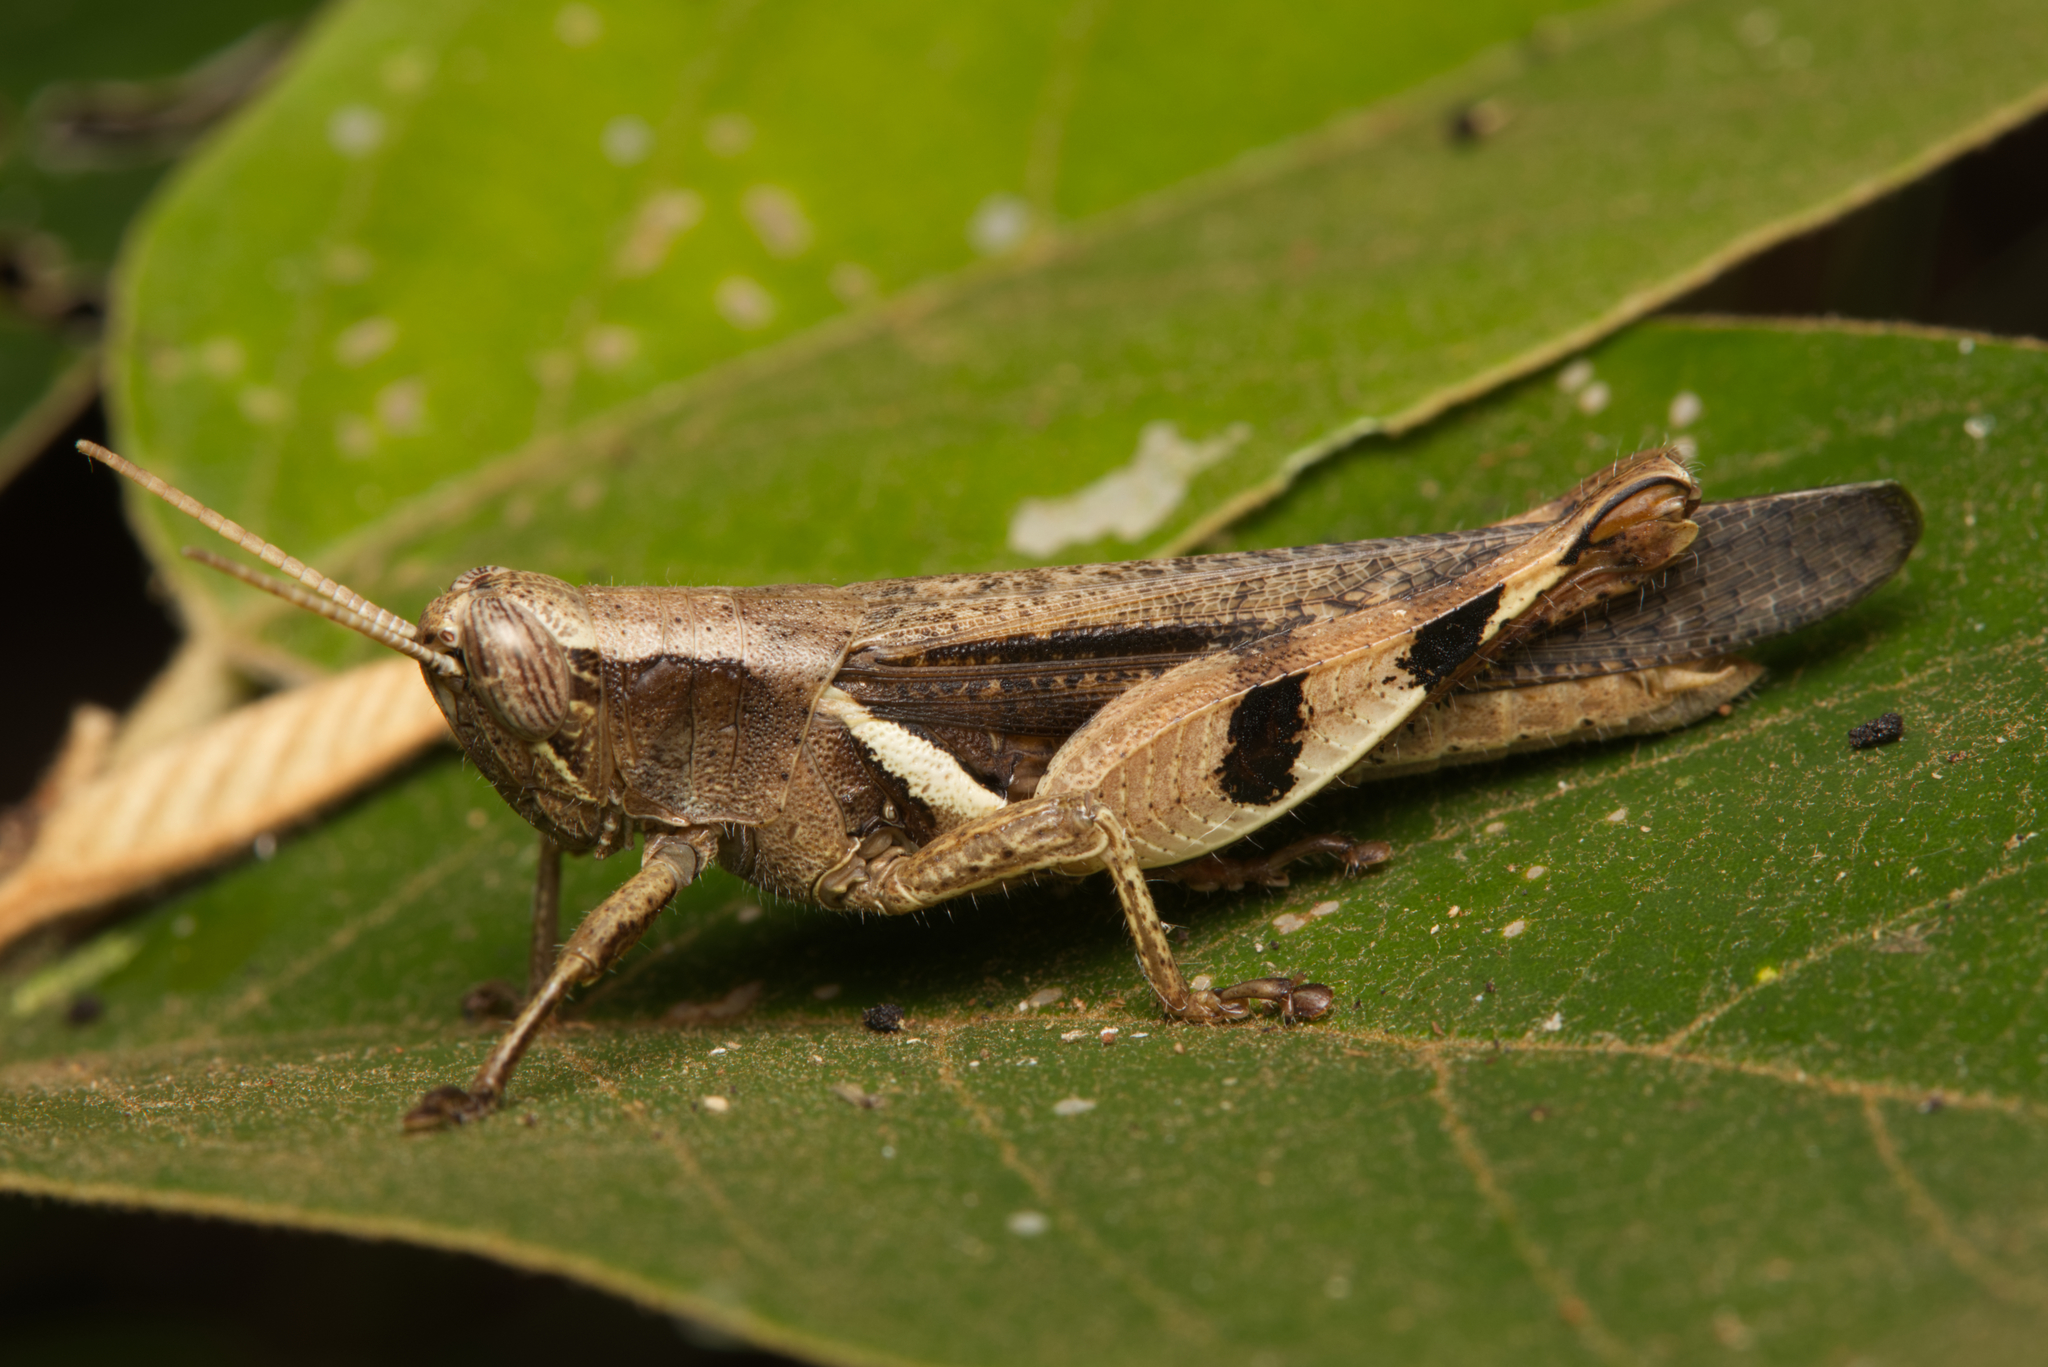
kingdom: Animalia
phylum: Arthropoda
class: Insecta
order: Orthoptera
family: Acrididae
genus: Stenocatantops
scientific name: Stenocatantops angustifrons
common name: Common tropical sharptail
